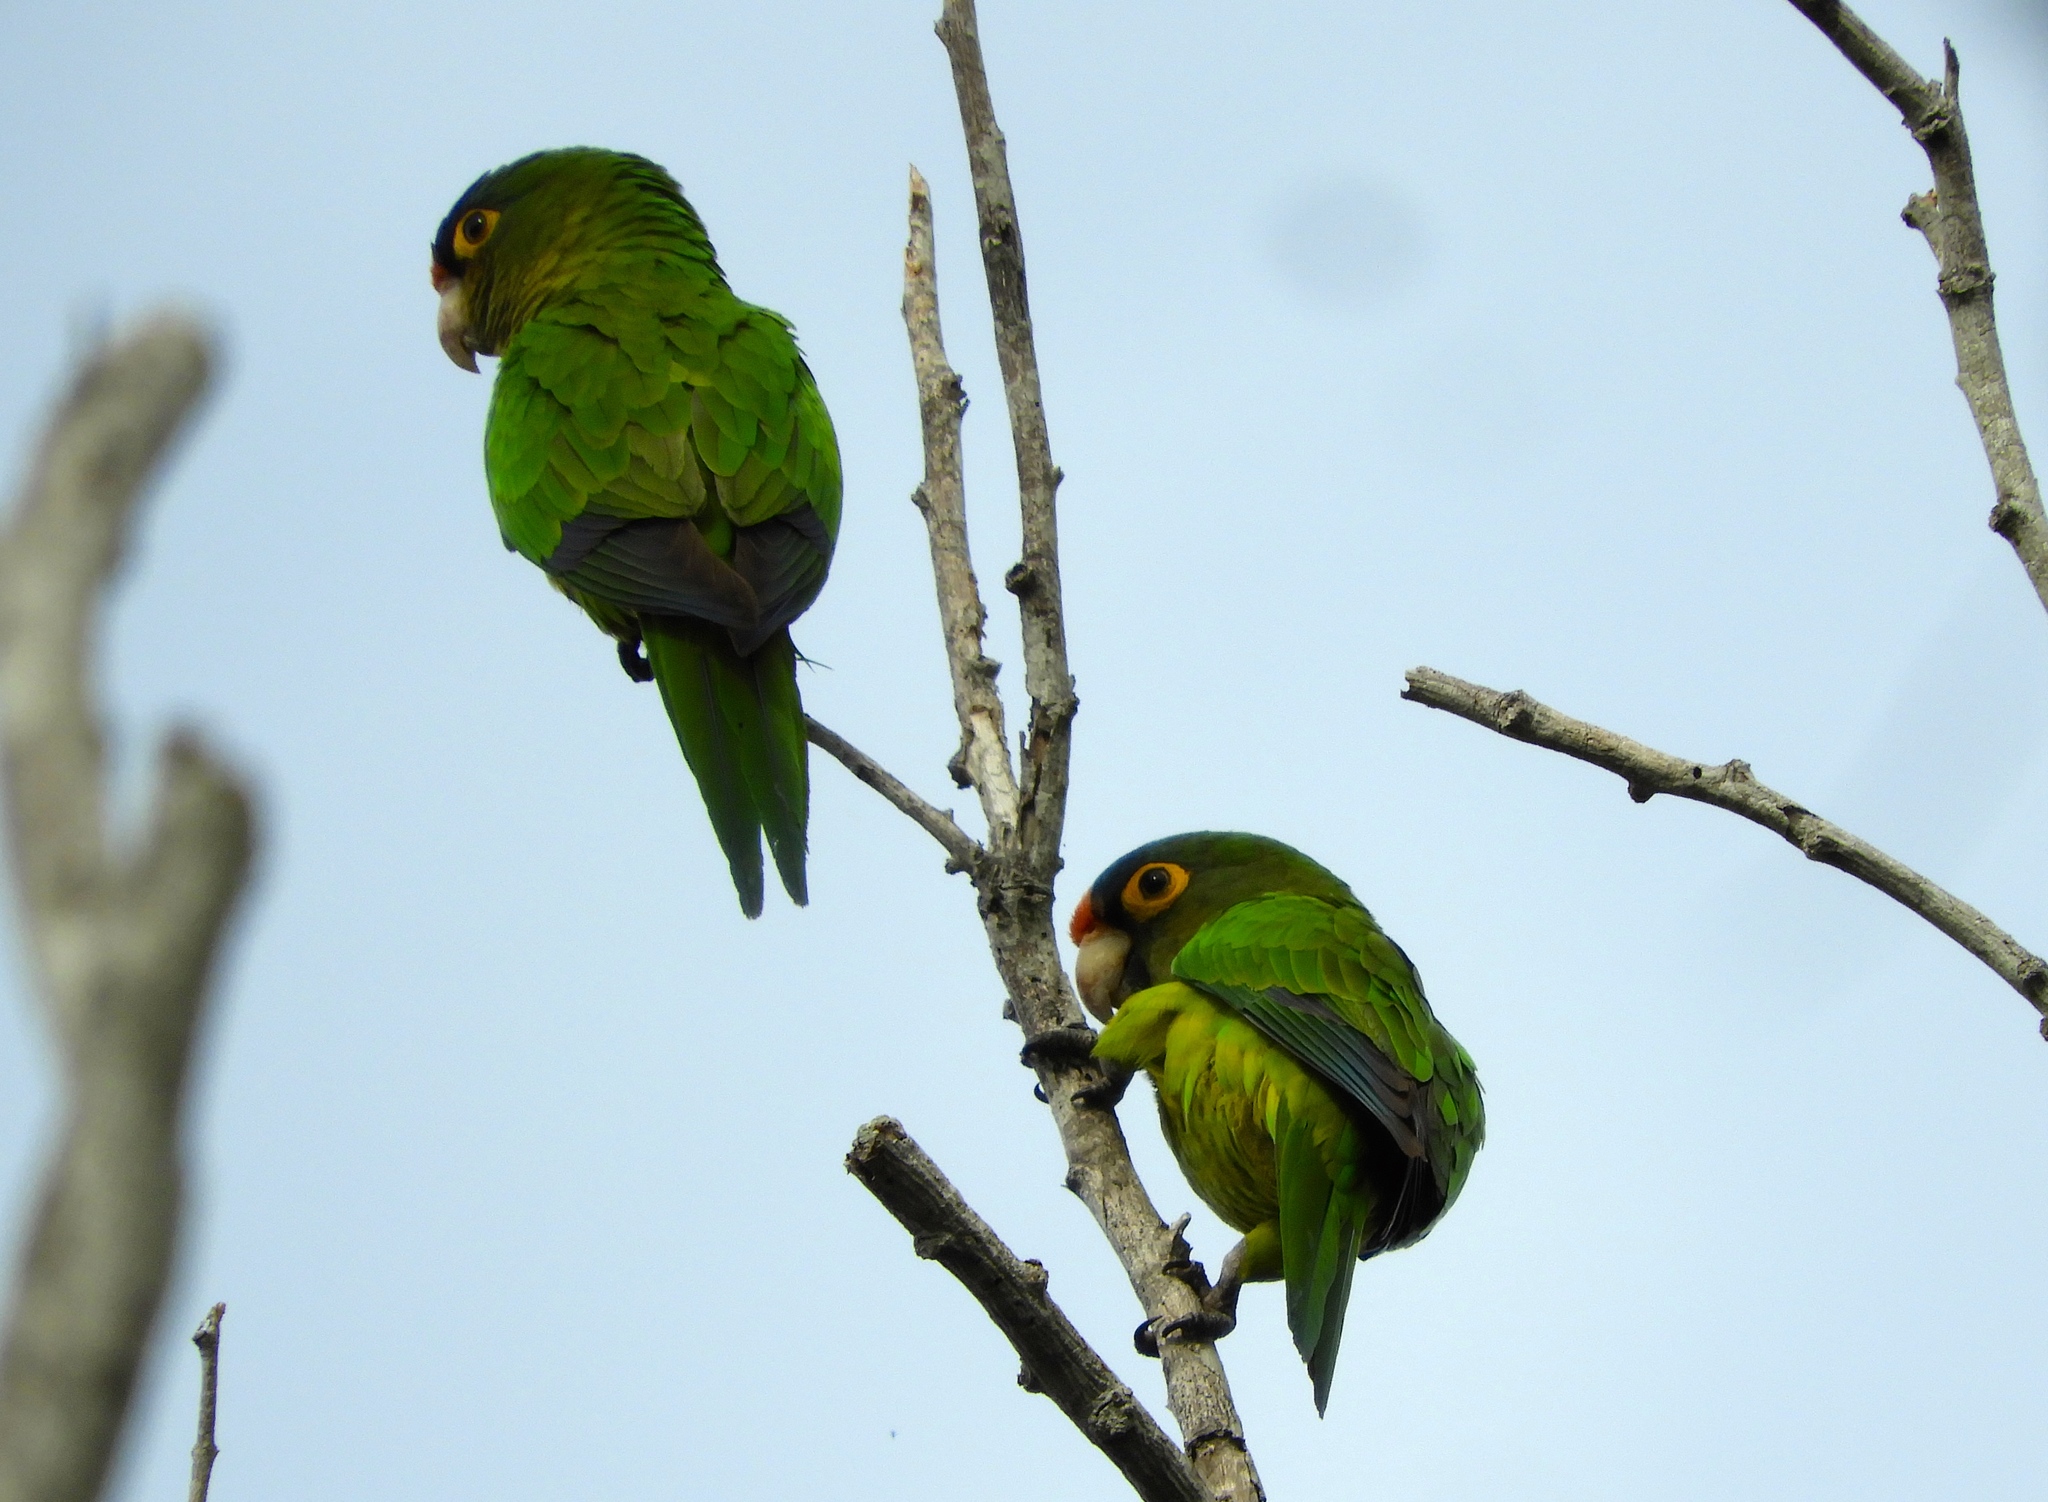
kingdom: Animalia
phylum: Chordata
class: Aves
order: Psittaciformes
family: Psittacidae
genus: Aratinga
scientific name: Aratinga canicularis
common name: Orange-fronted parakeet
